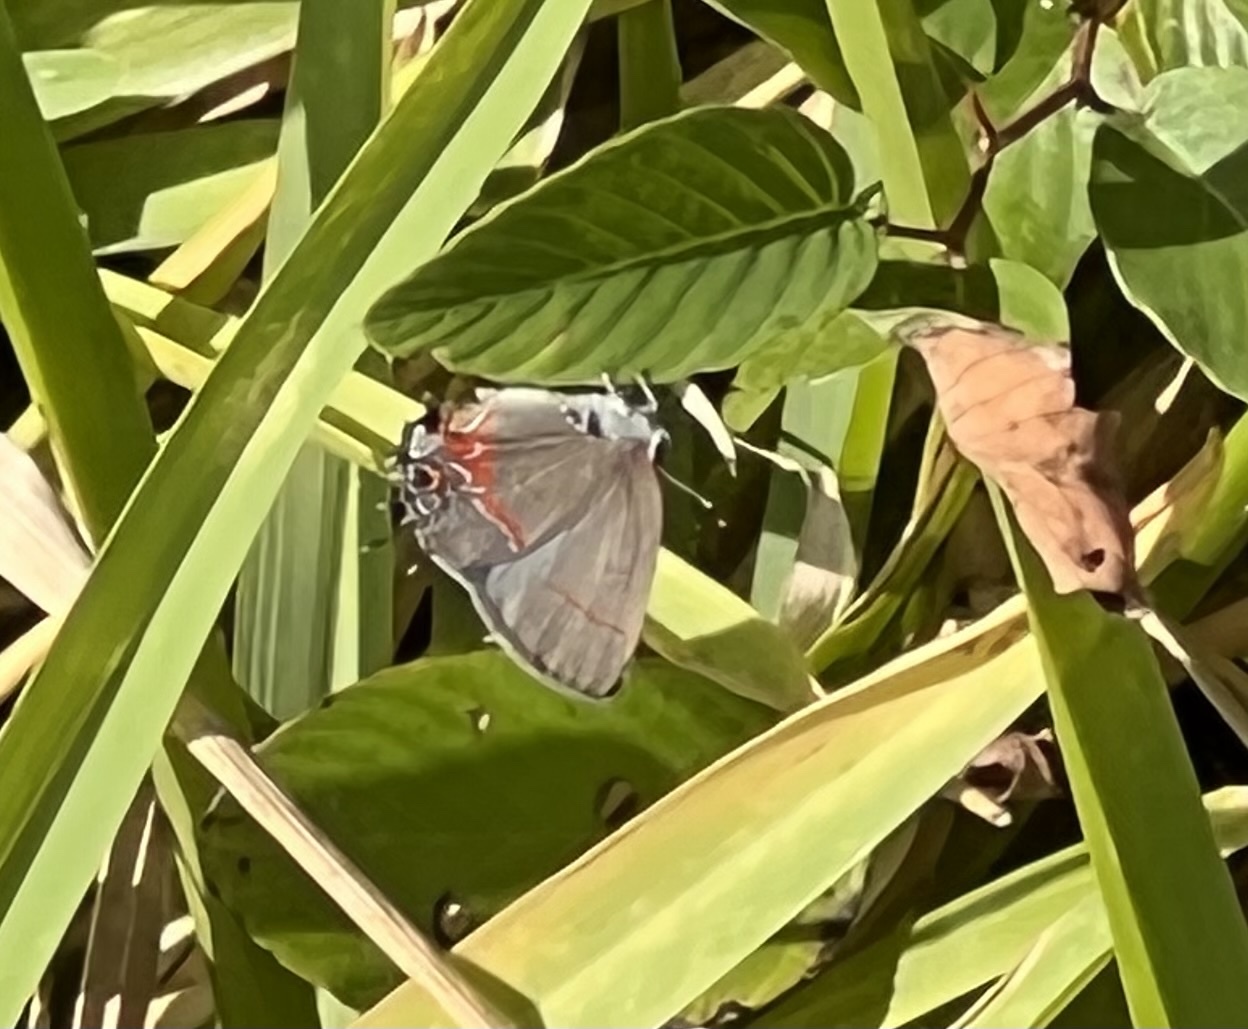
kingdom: Animalia
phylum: Arthropoda
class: Insecta
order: Lepidoptera
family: Lycaenidae
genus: Calycopis
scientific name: Calycopis cecrops
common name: Red-banded hairstreak
